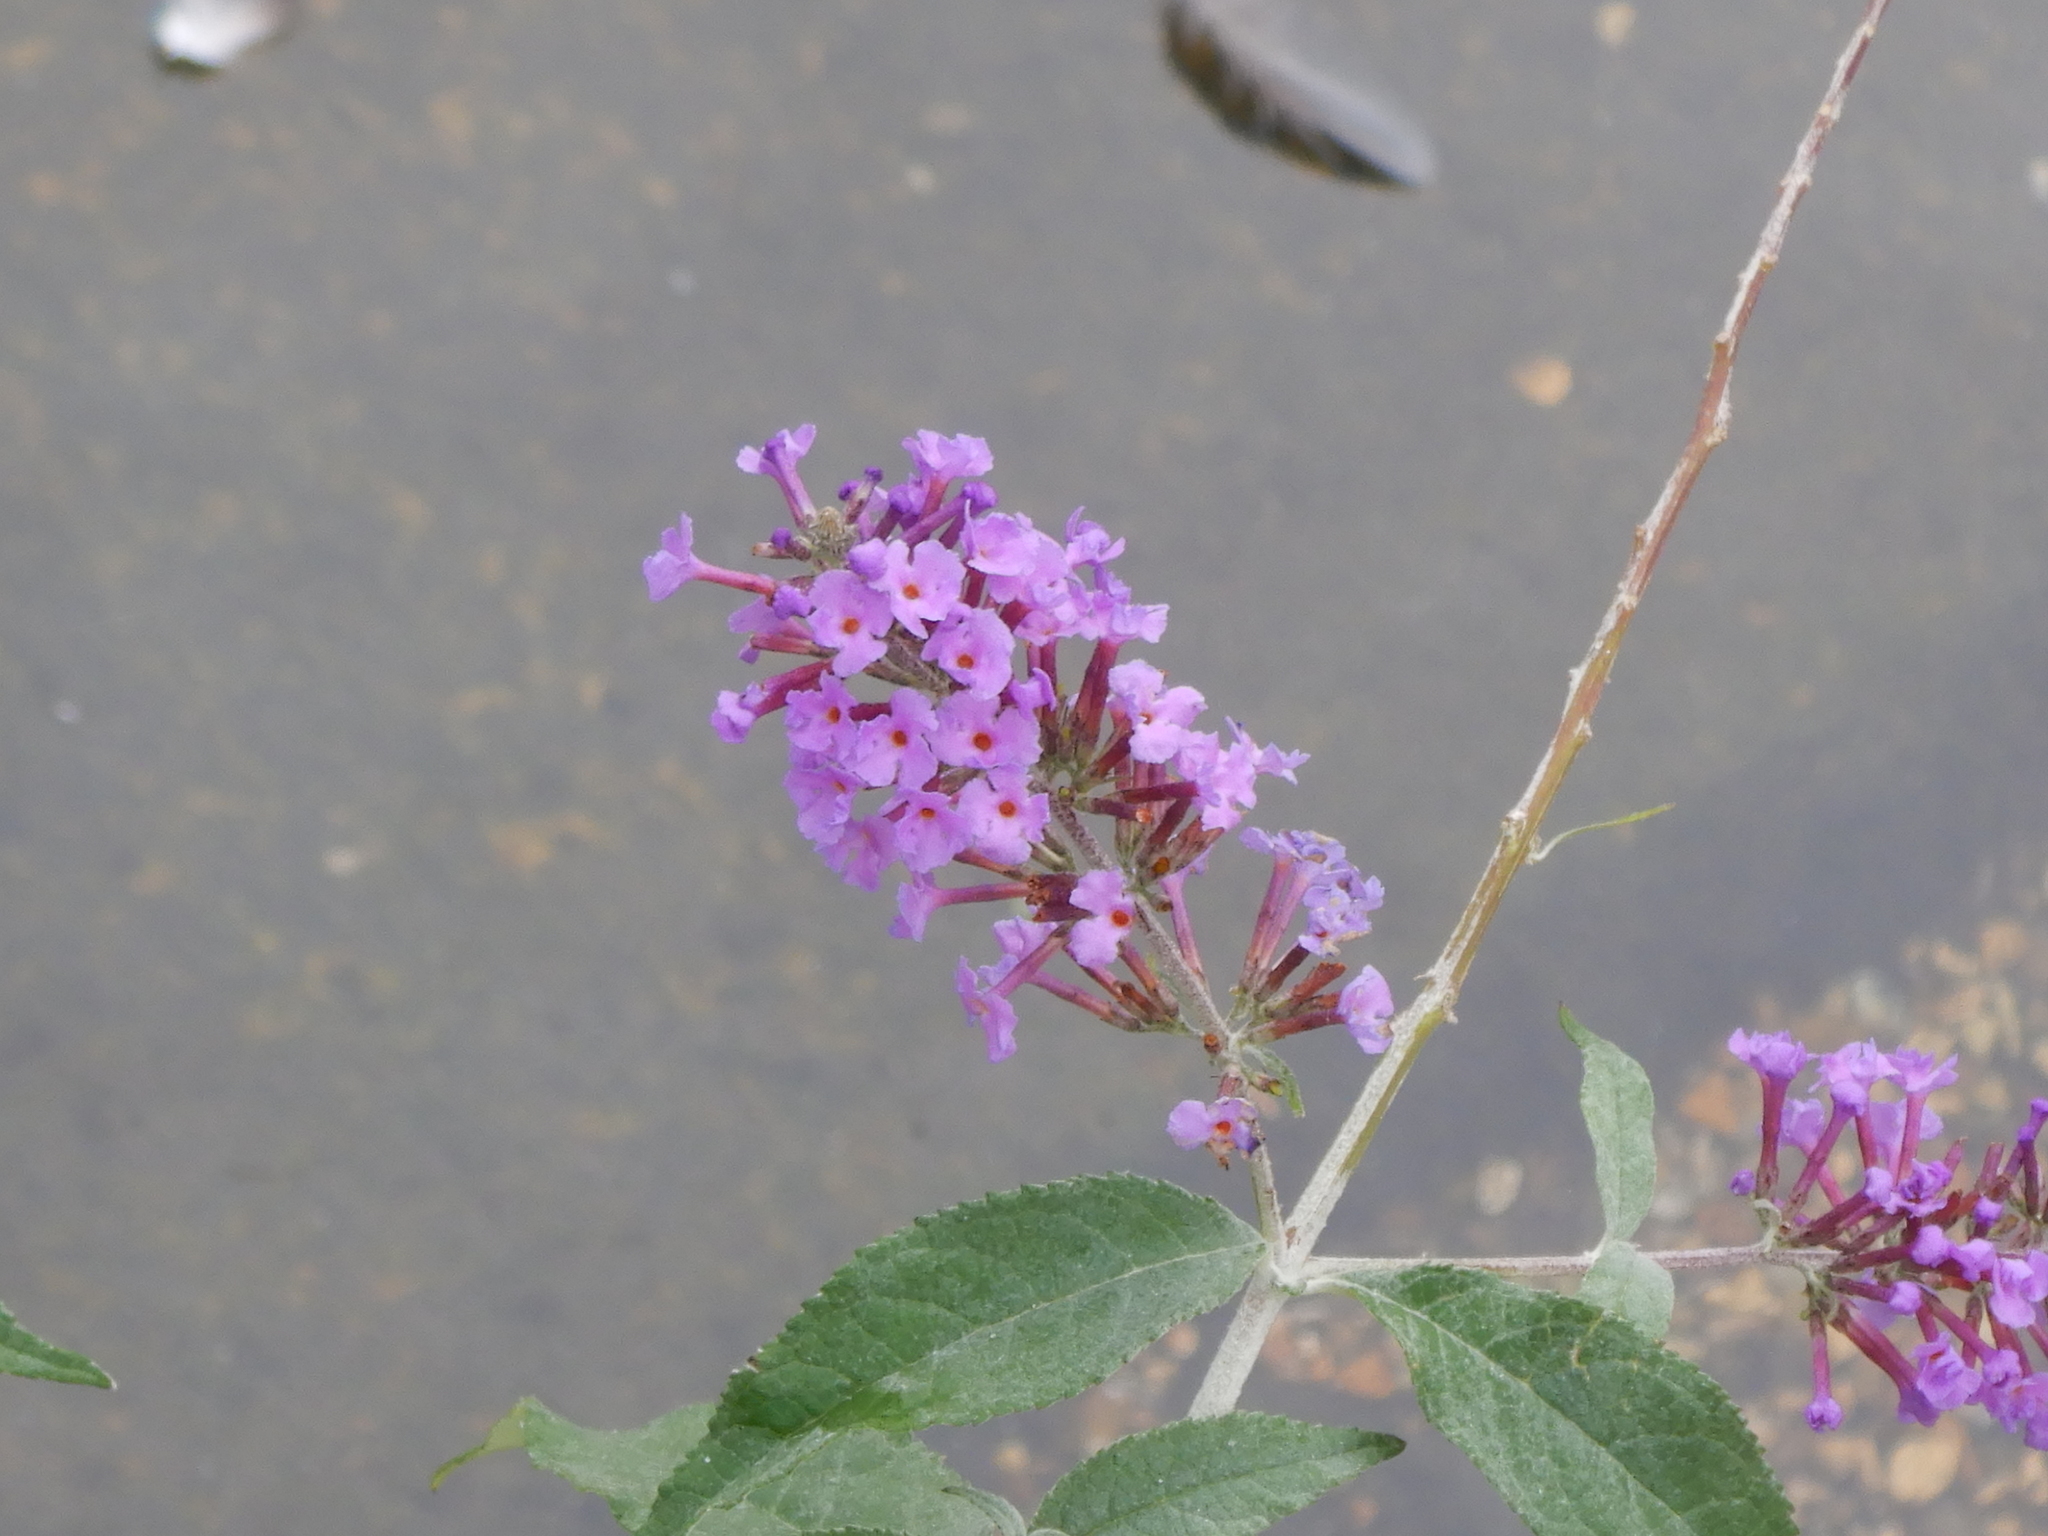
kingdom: Plantae
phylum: Tracheophyta
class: Magnoliopsida
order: Lamiales
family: Scrophulariaceae
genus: Buddleja
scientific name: Buddleja davidii
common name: Butterfly-bush
